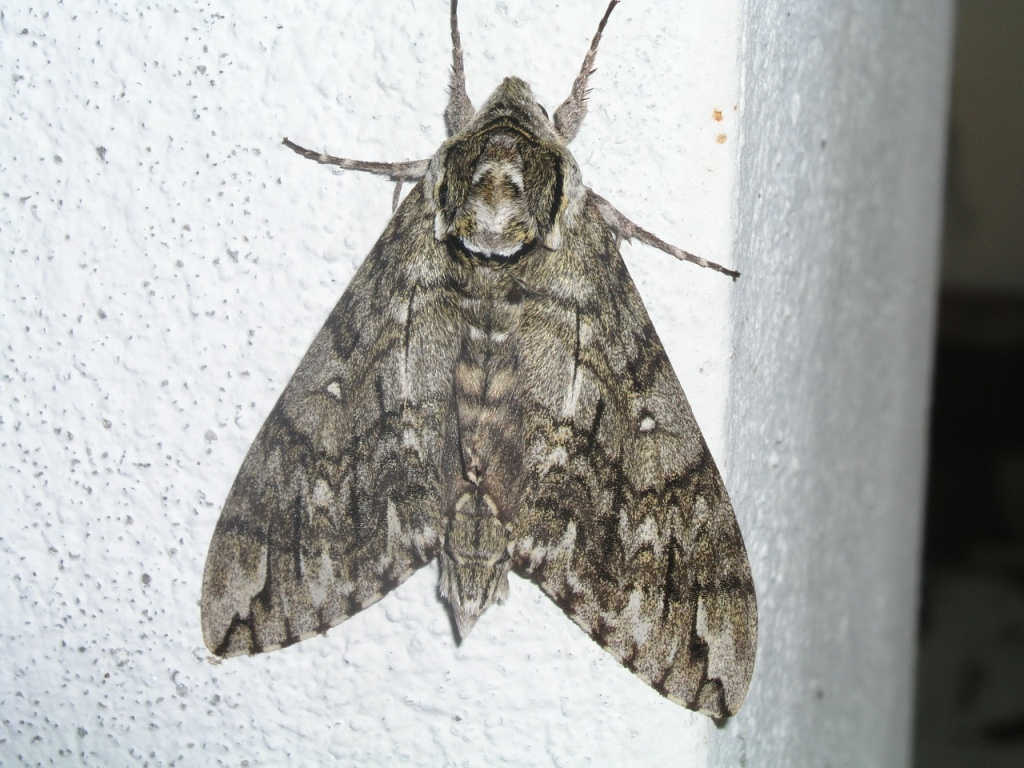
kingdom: Animalia
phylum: Arthropoda
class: Insecta
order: Lepidoptera
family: Sphingidae
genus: Ceratomia
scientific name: Ceratomia undulosa
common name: Waved sphinx
